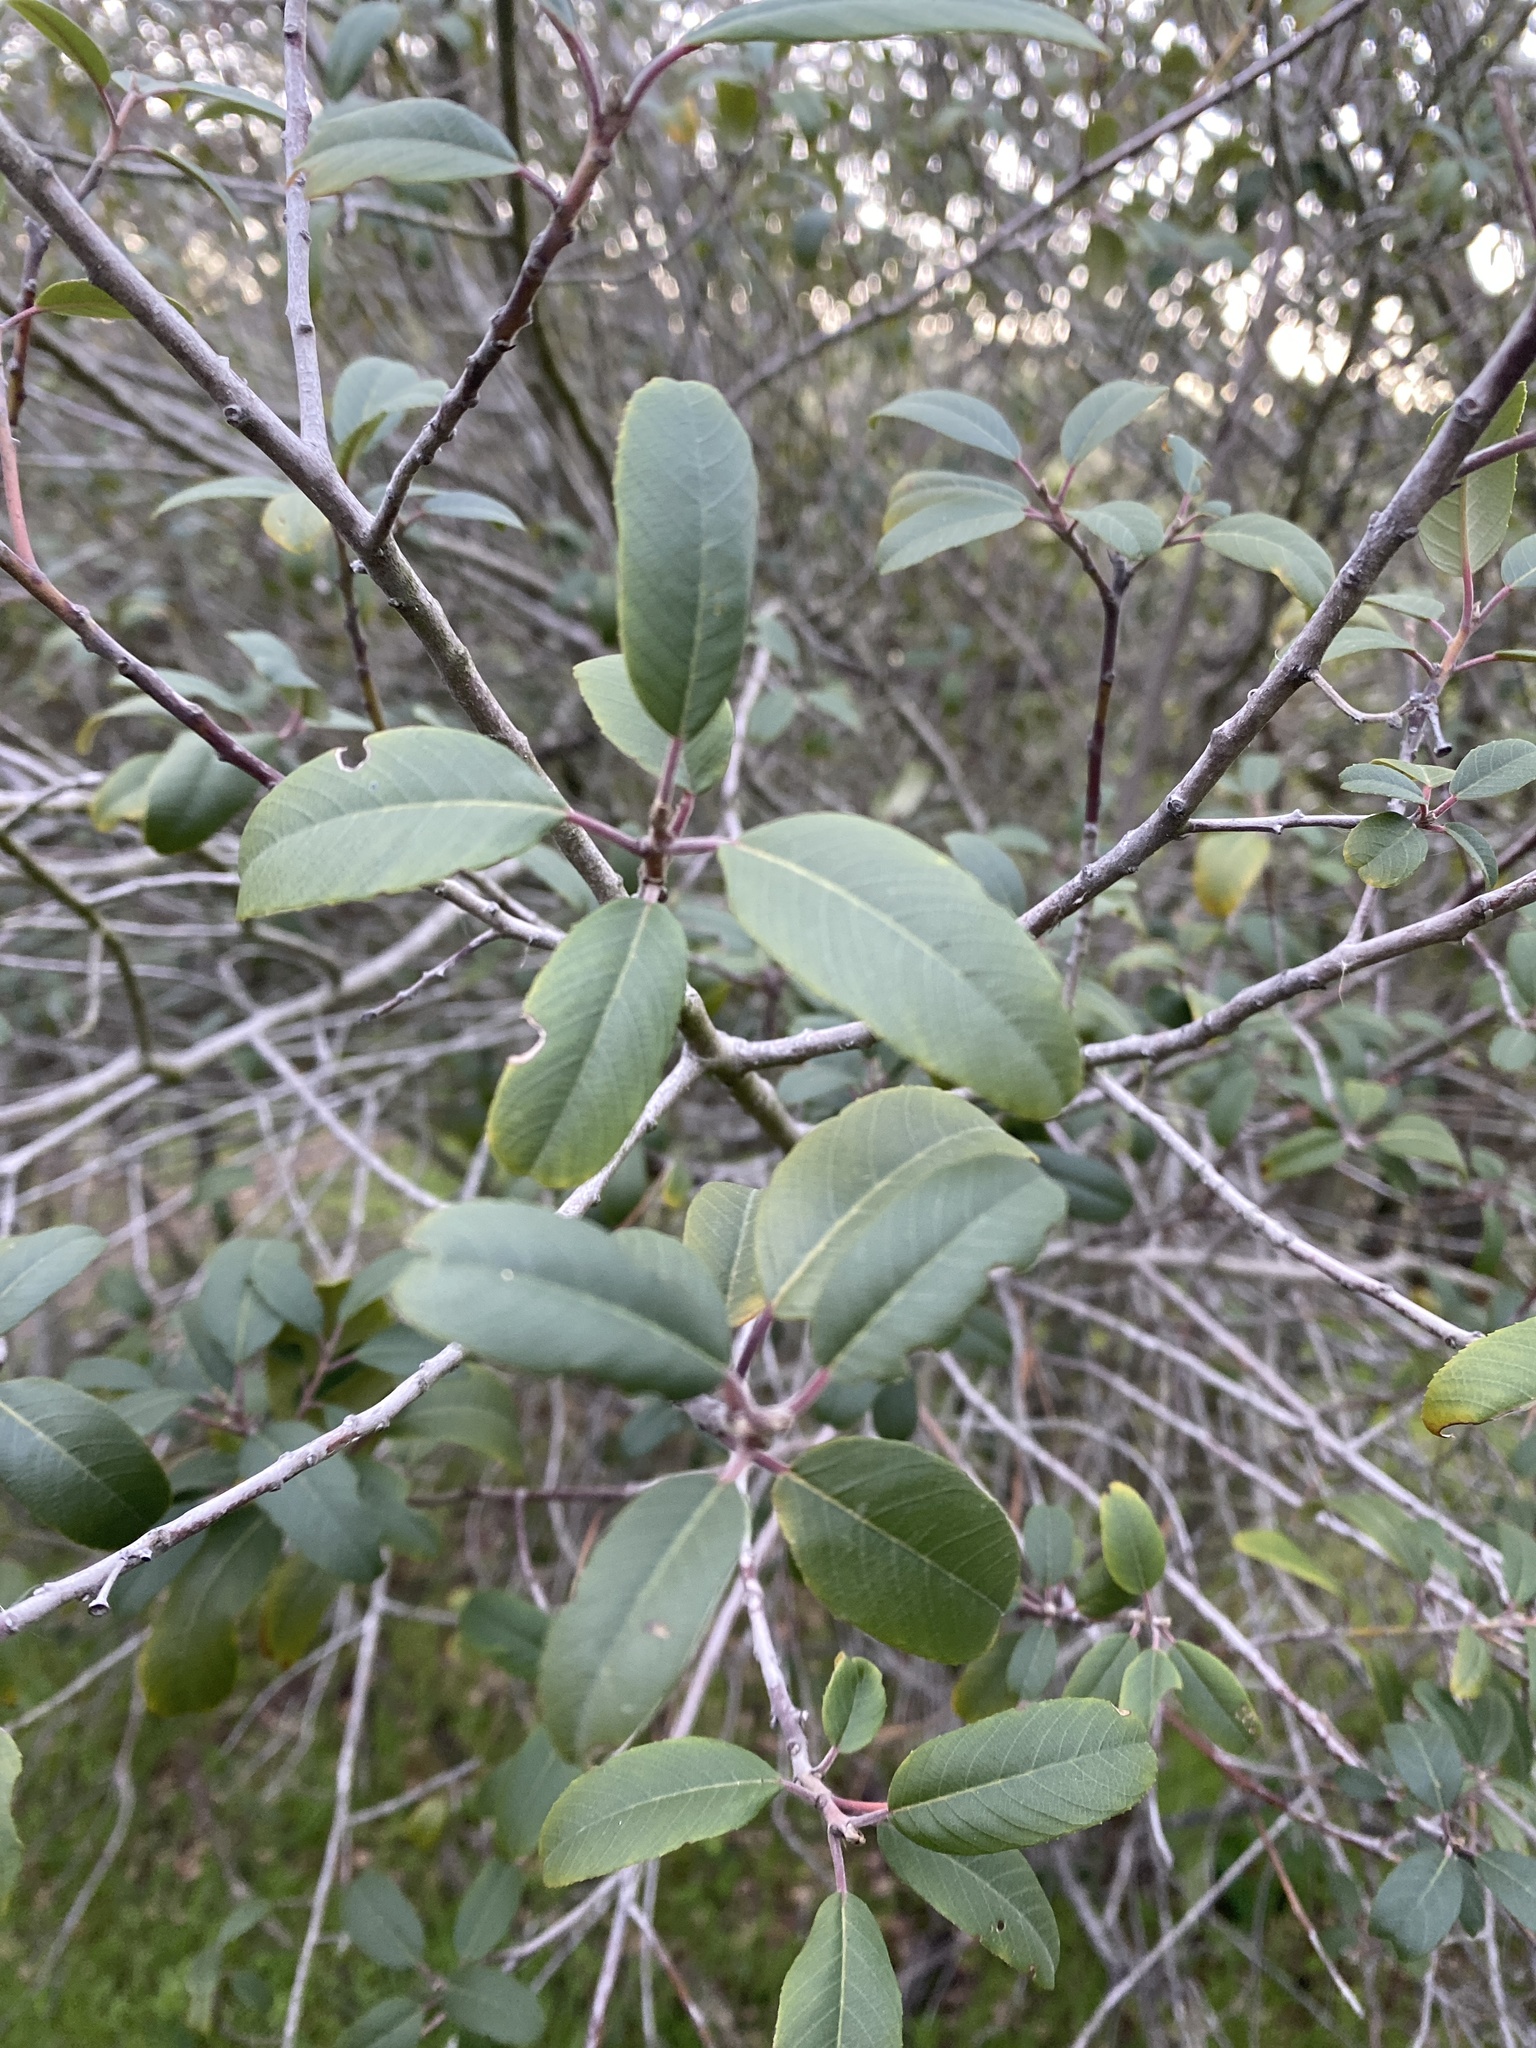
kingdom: Plantae
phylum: Tracheophyta
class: Magnoliopsida
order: Rosales
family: Rhamnaceae
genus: Frangula
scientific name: Frangula californica
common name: California buckthorn
